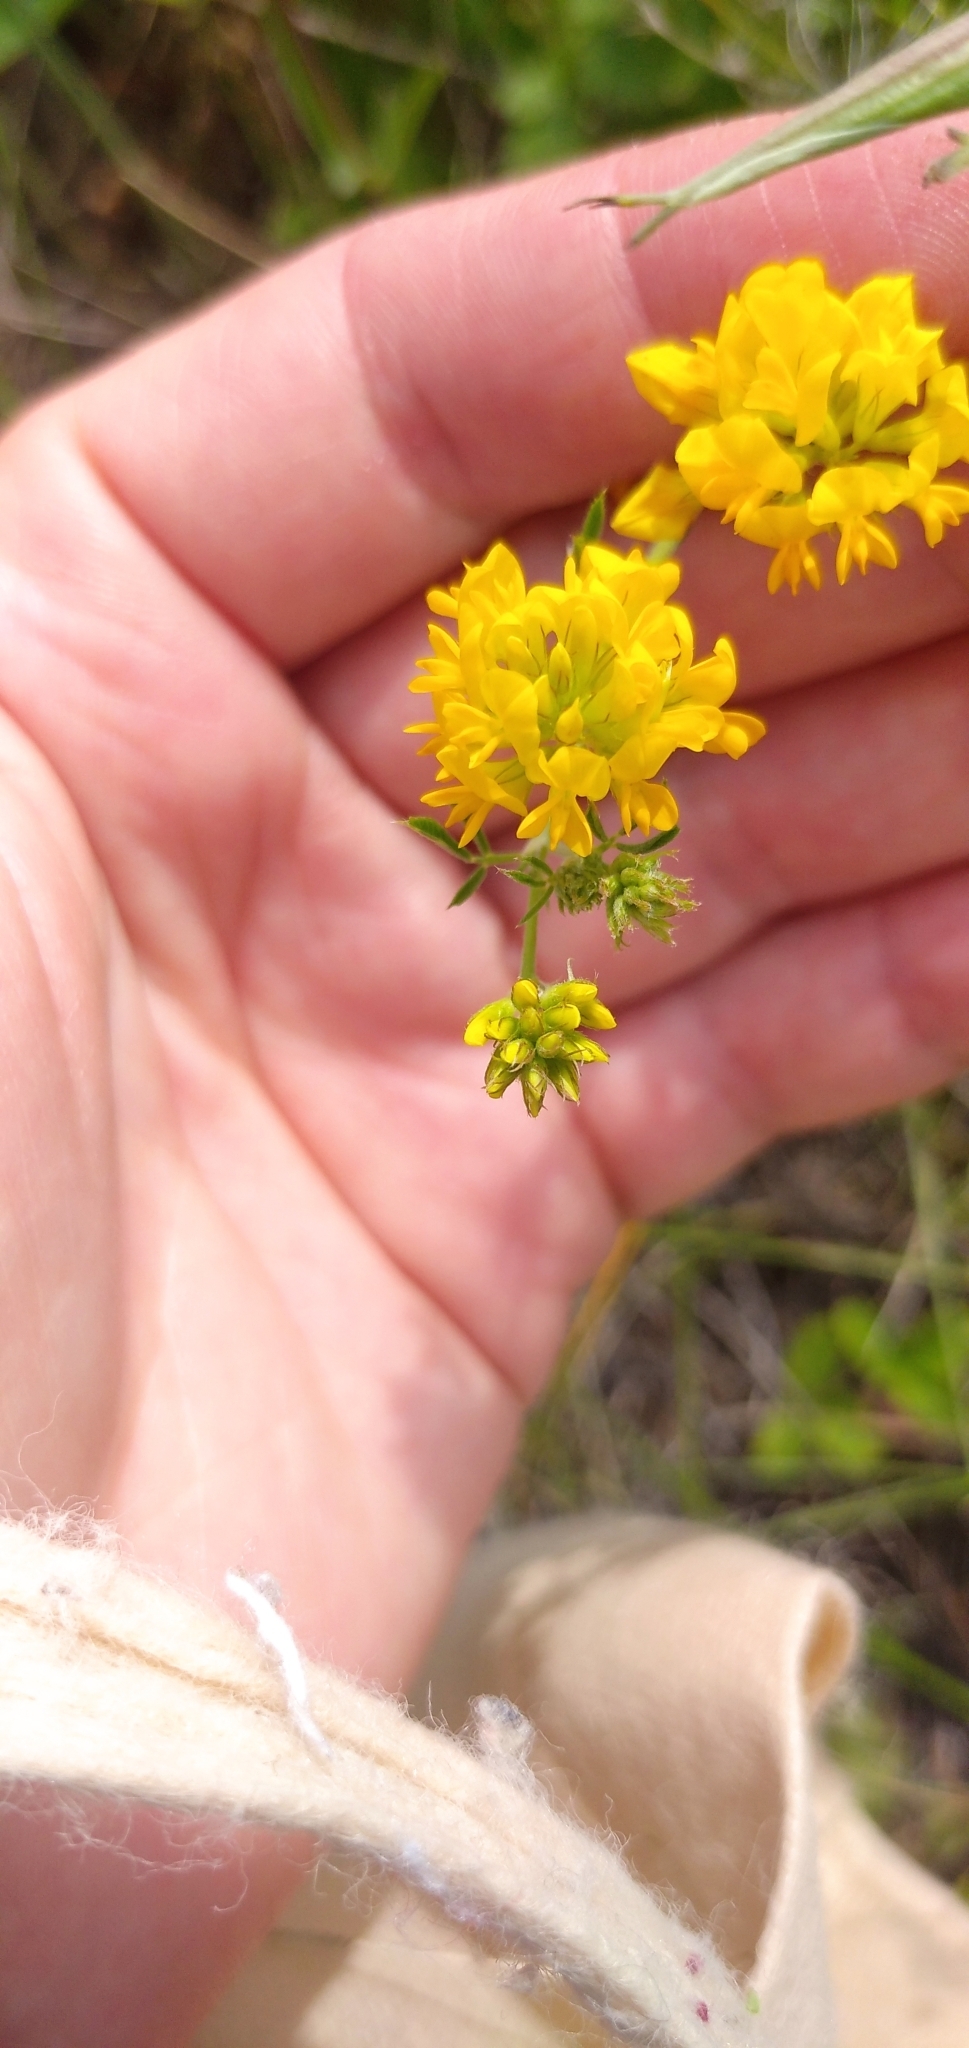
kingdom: Plantae
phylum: Tracheophyta
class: Magnoliopsida
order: Fabales
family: Fabaceae
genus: Medicago
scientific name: Medicago falcata
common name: Sickle medick
